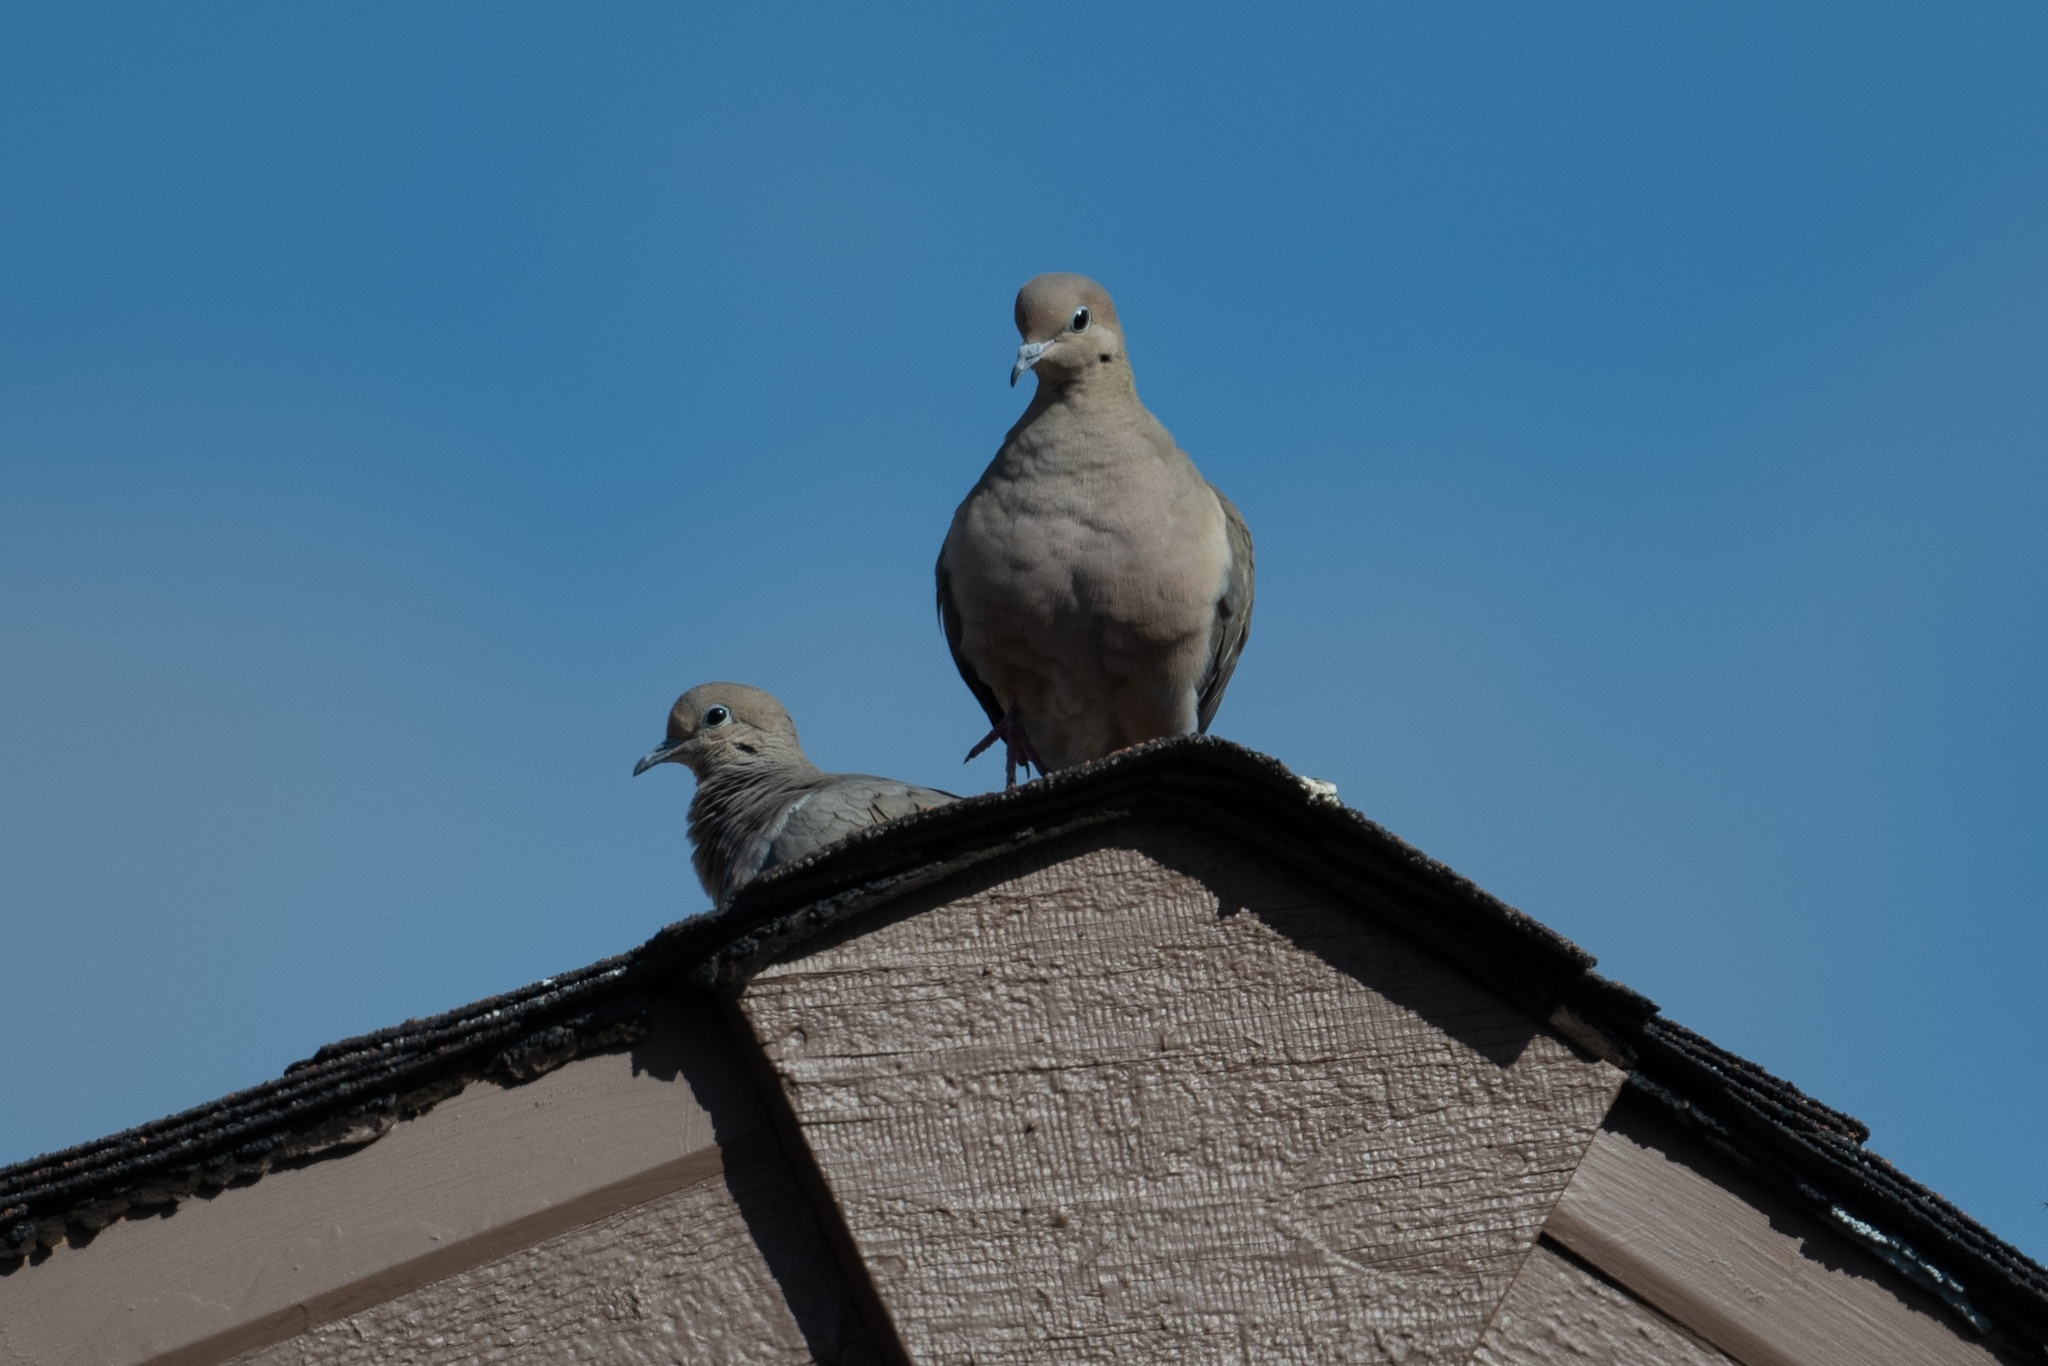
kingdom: Animalia
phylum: Chordata
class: Aves
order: Columbiformes
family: Columbidae
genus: Zenaida
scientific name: Zenaida macroura
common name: Mourning dove
